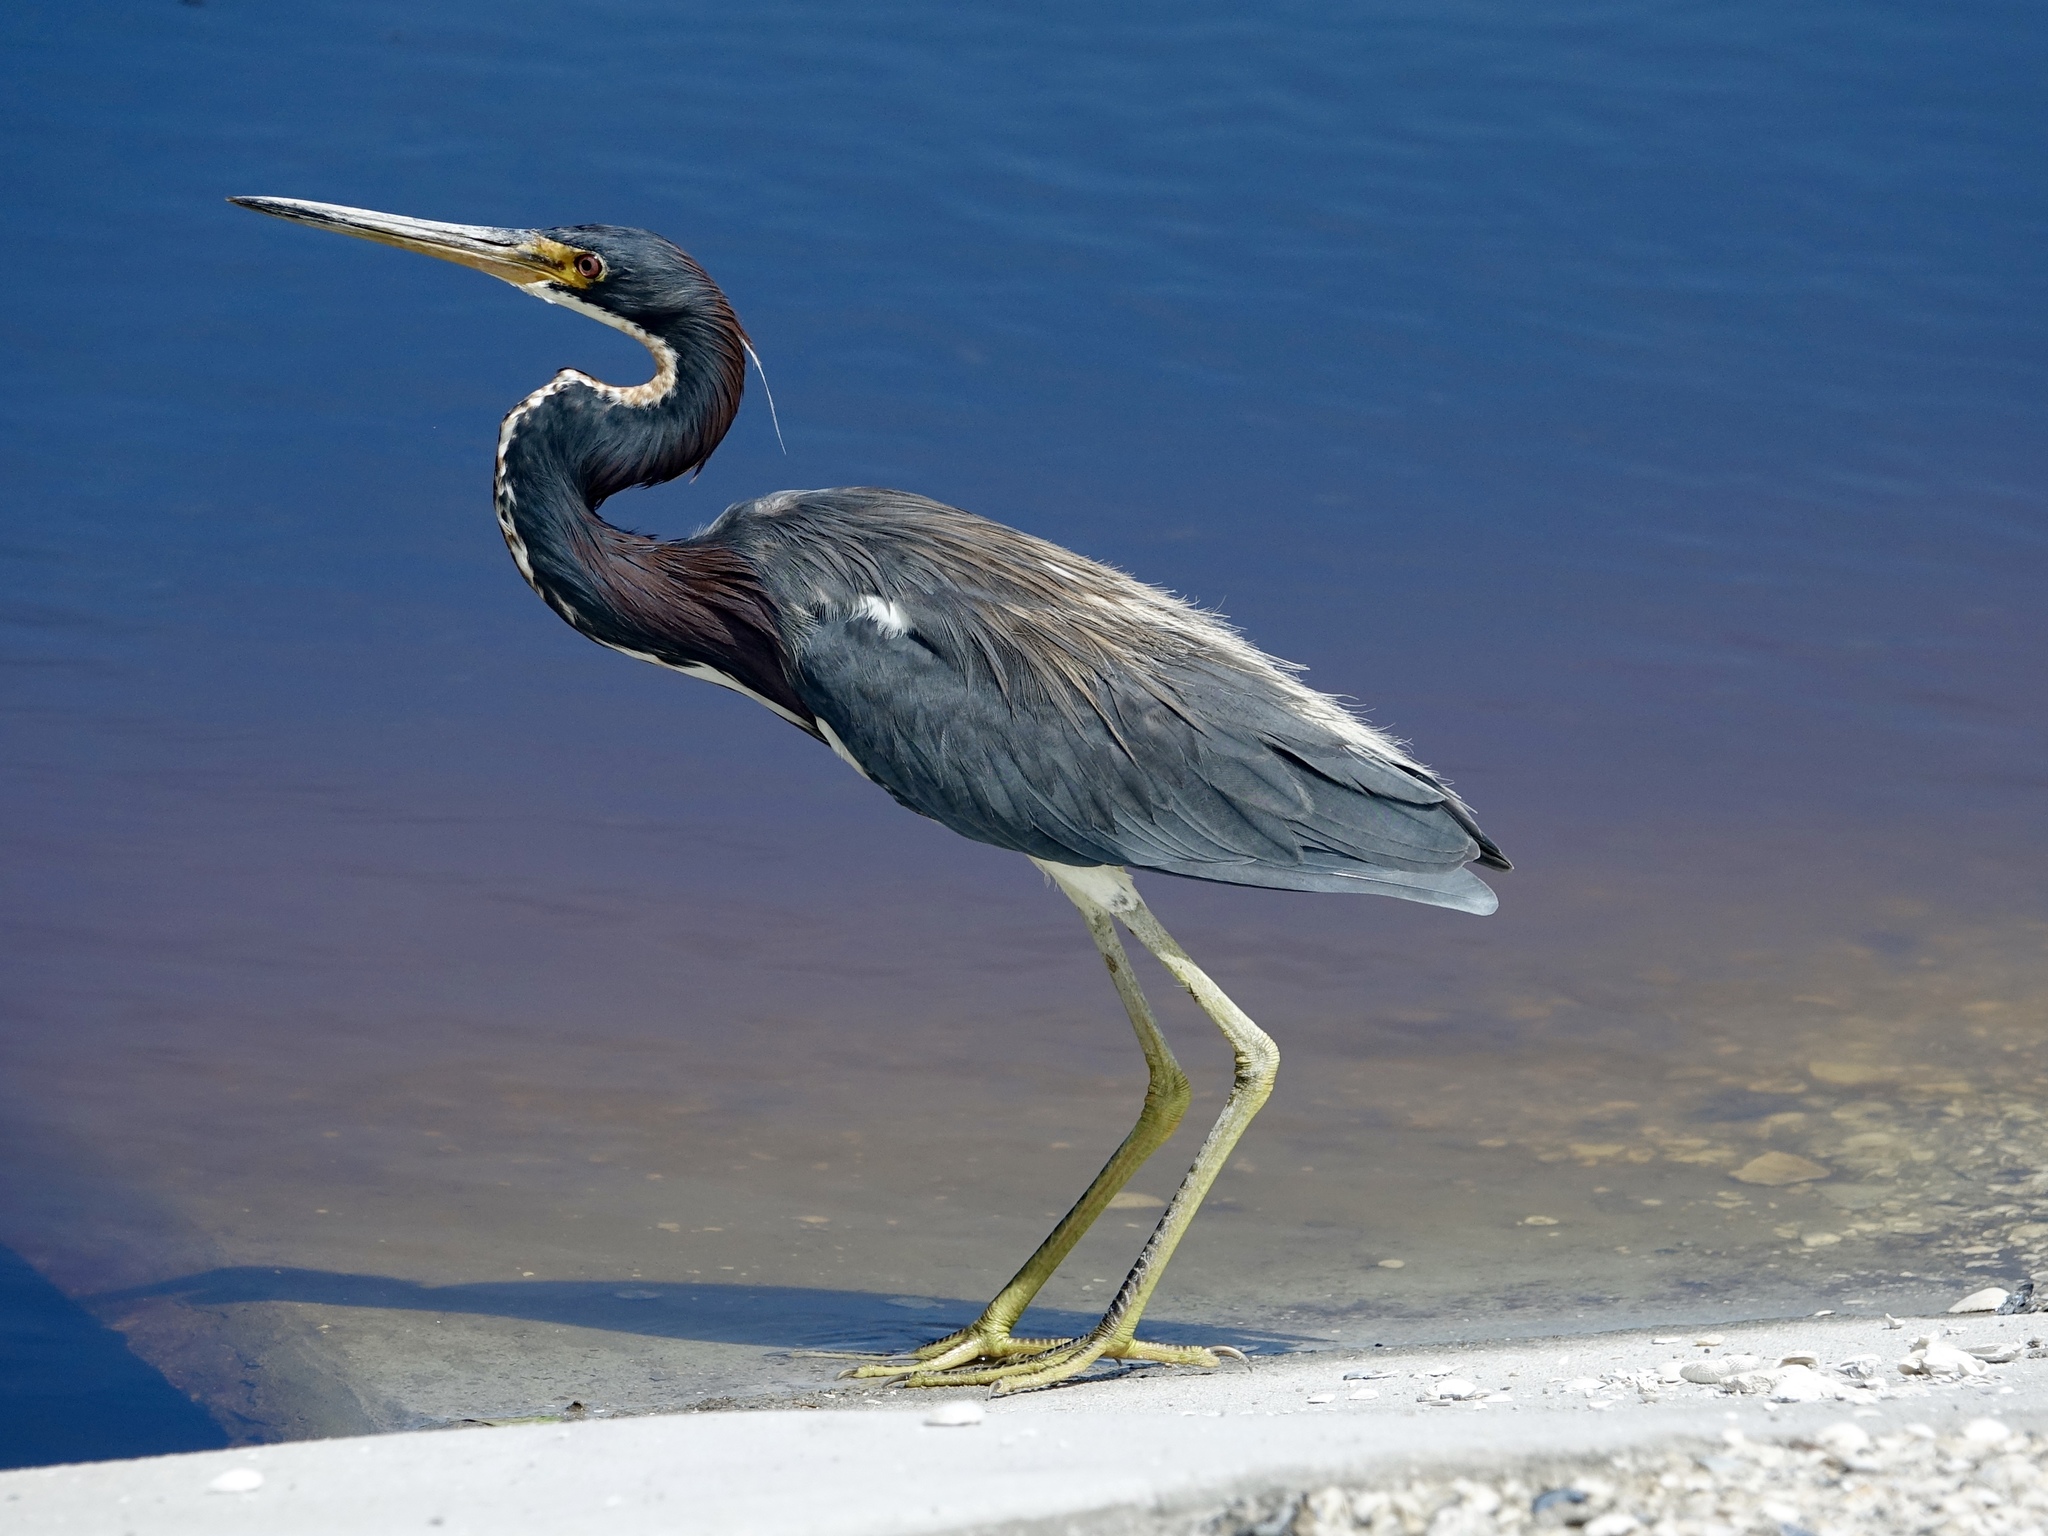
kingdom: Animalia
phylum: Chordata
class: Aves
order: Pelecaniformes
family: Ardeidae
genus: Egretta
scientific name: Egretta tricolor
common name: Tricolored heron
